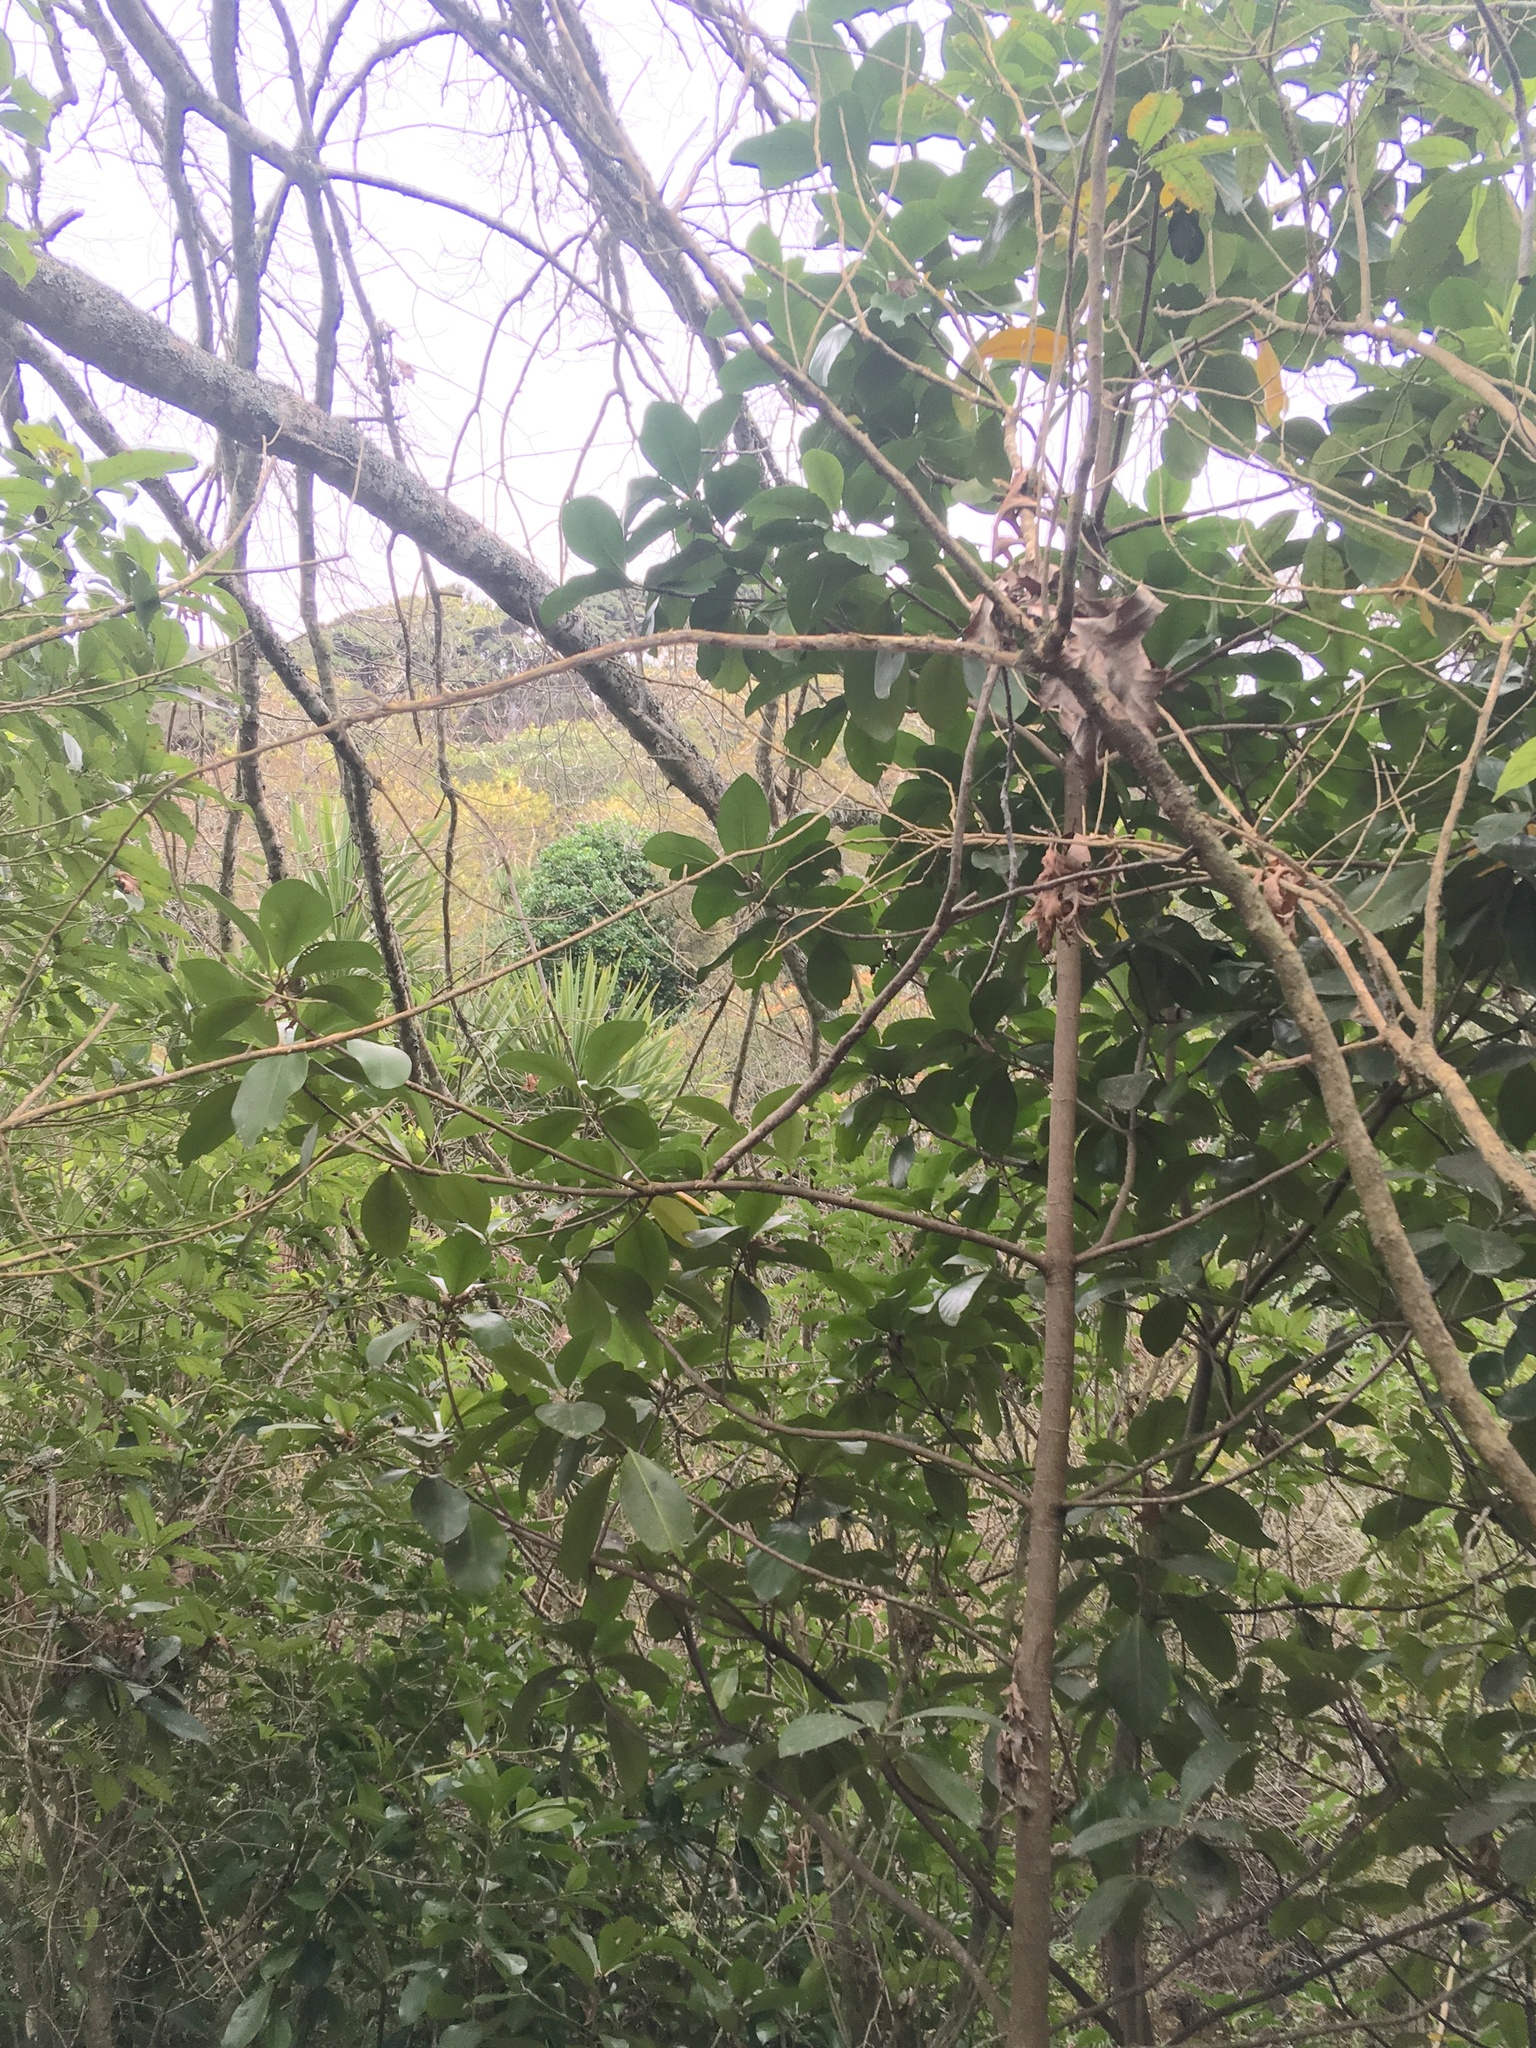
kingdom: Plantae
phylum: Tracheophyta
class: Magnoliopsida
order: Cucurbitales
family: Corynocarpaceae
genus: Corynocarpus
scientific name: Corynocarpus laevigatus
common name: New zealand laurel
